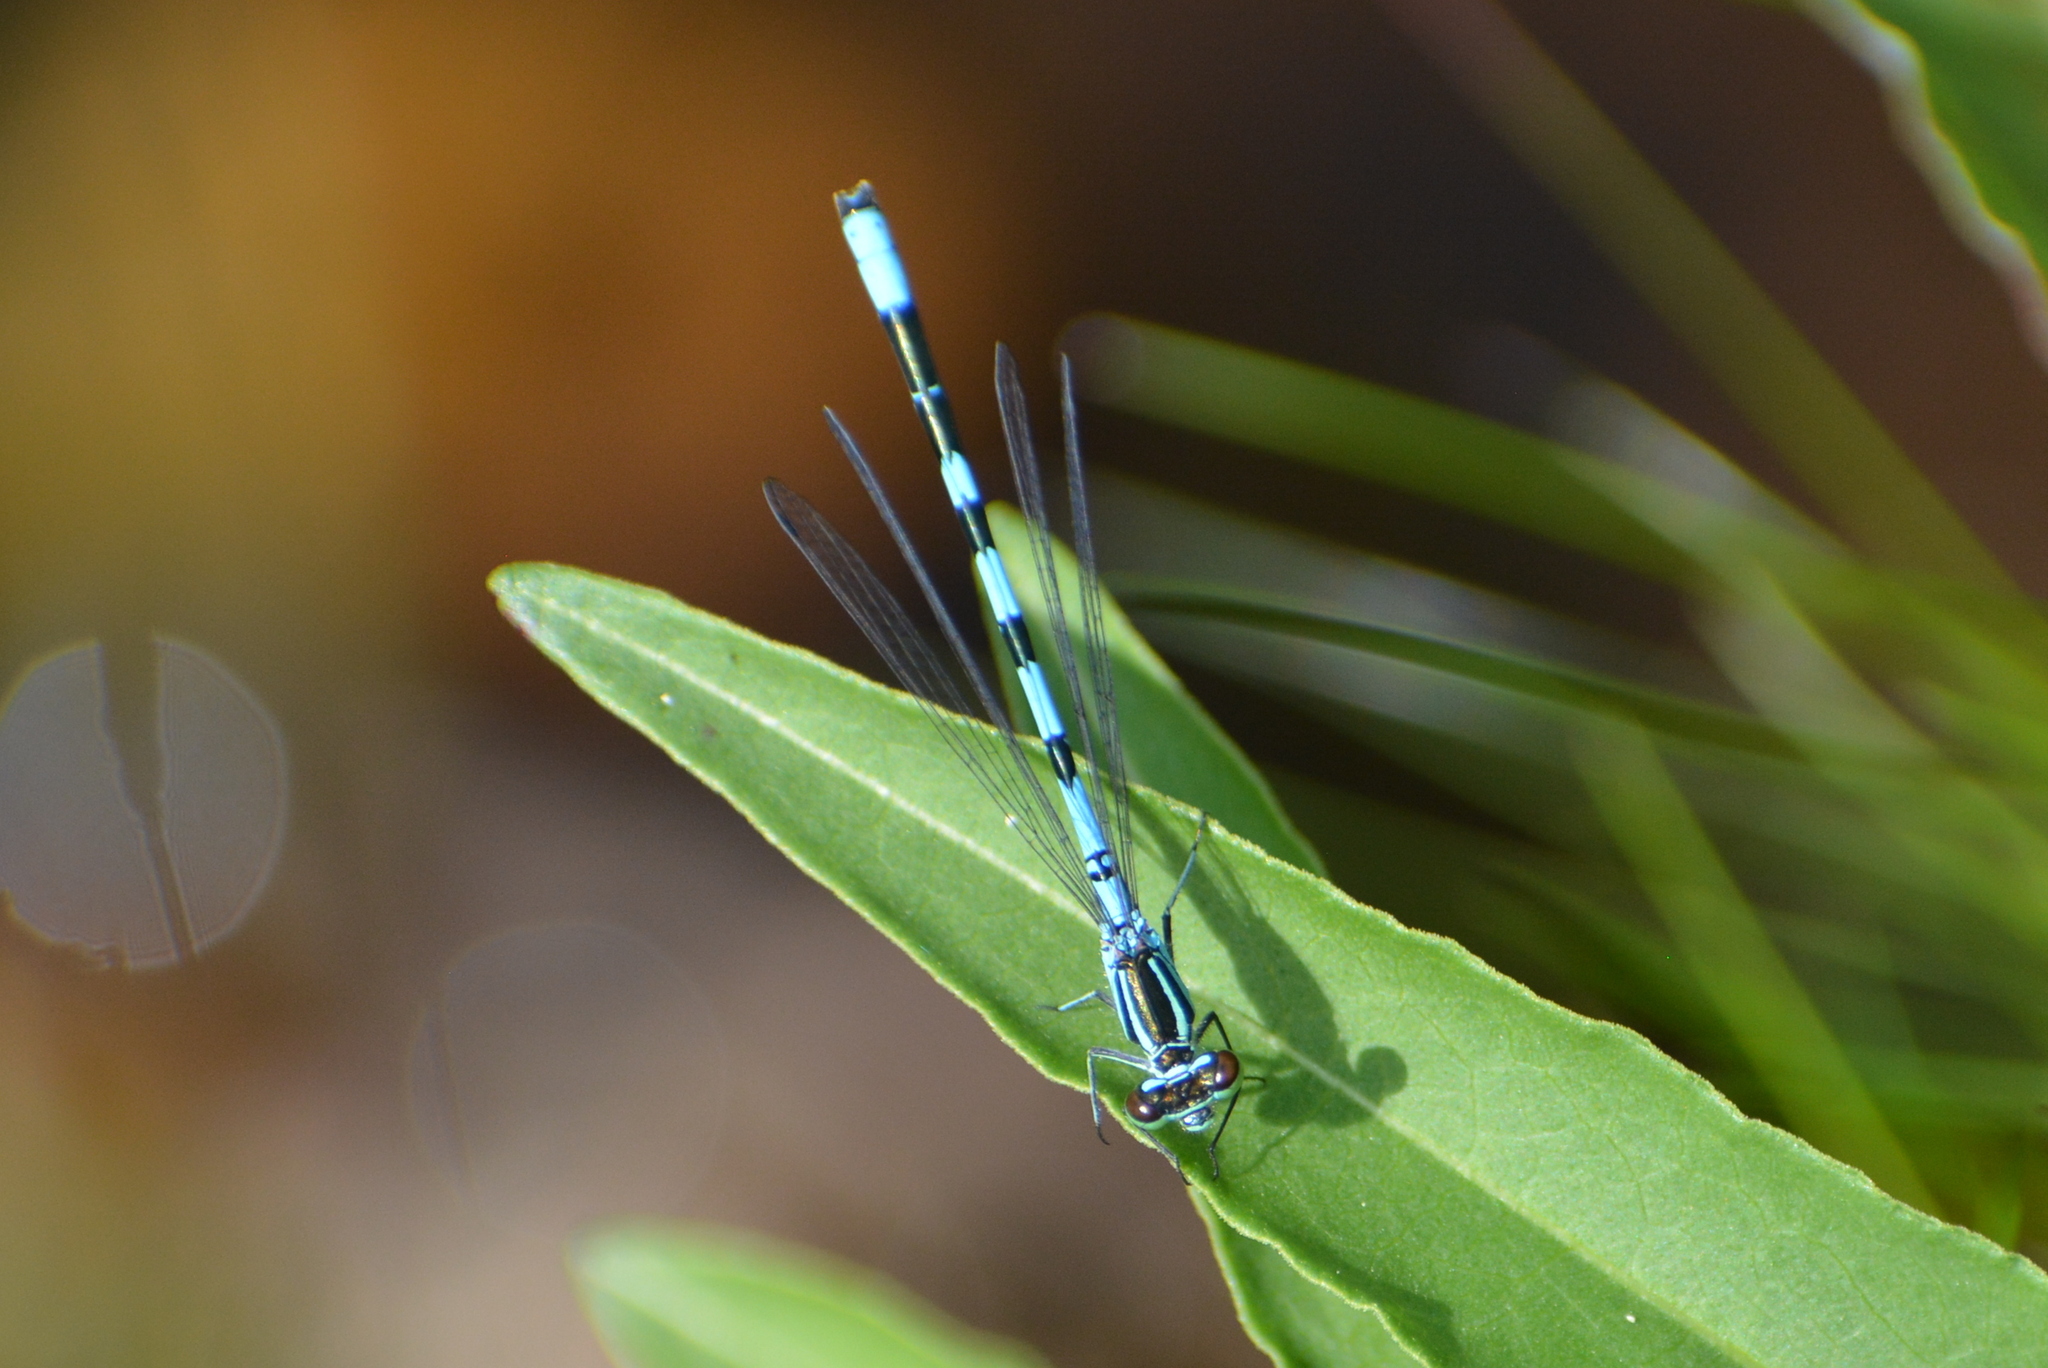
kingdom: Animalia
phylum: Arthropoda
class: Insecta
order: Odonata
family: Coenagrionidae
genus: Coenagrion
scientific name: Coenagrion hastulatum
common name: Spearhead bluet
